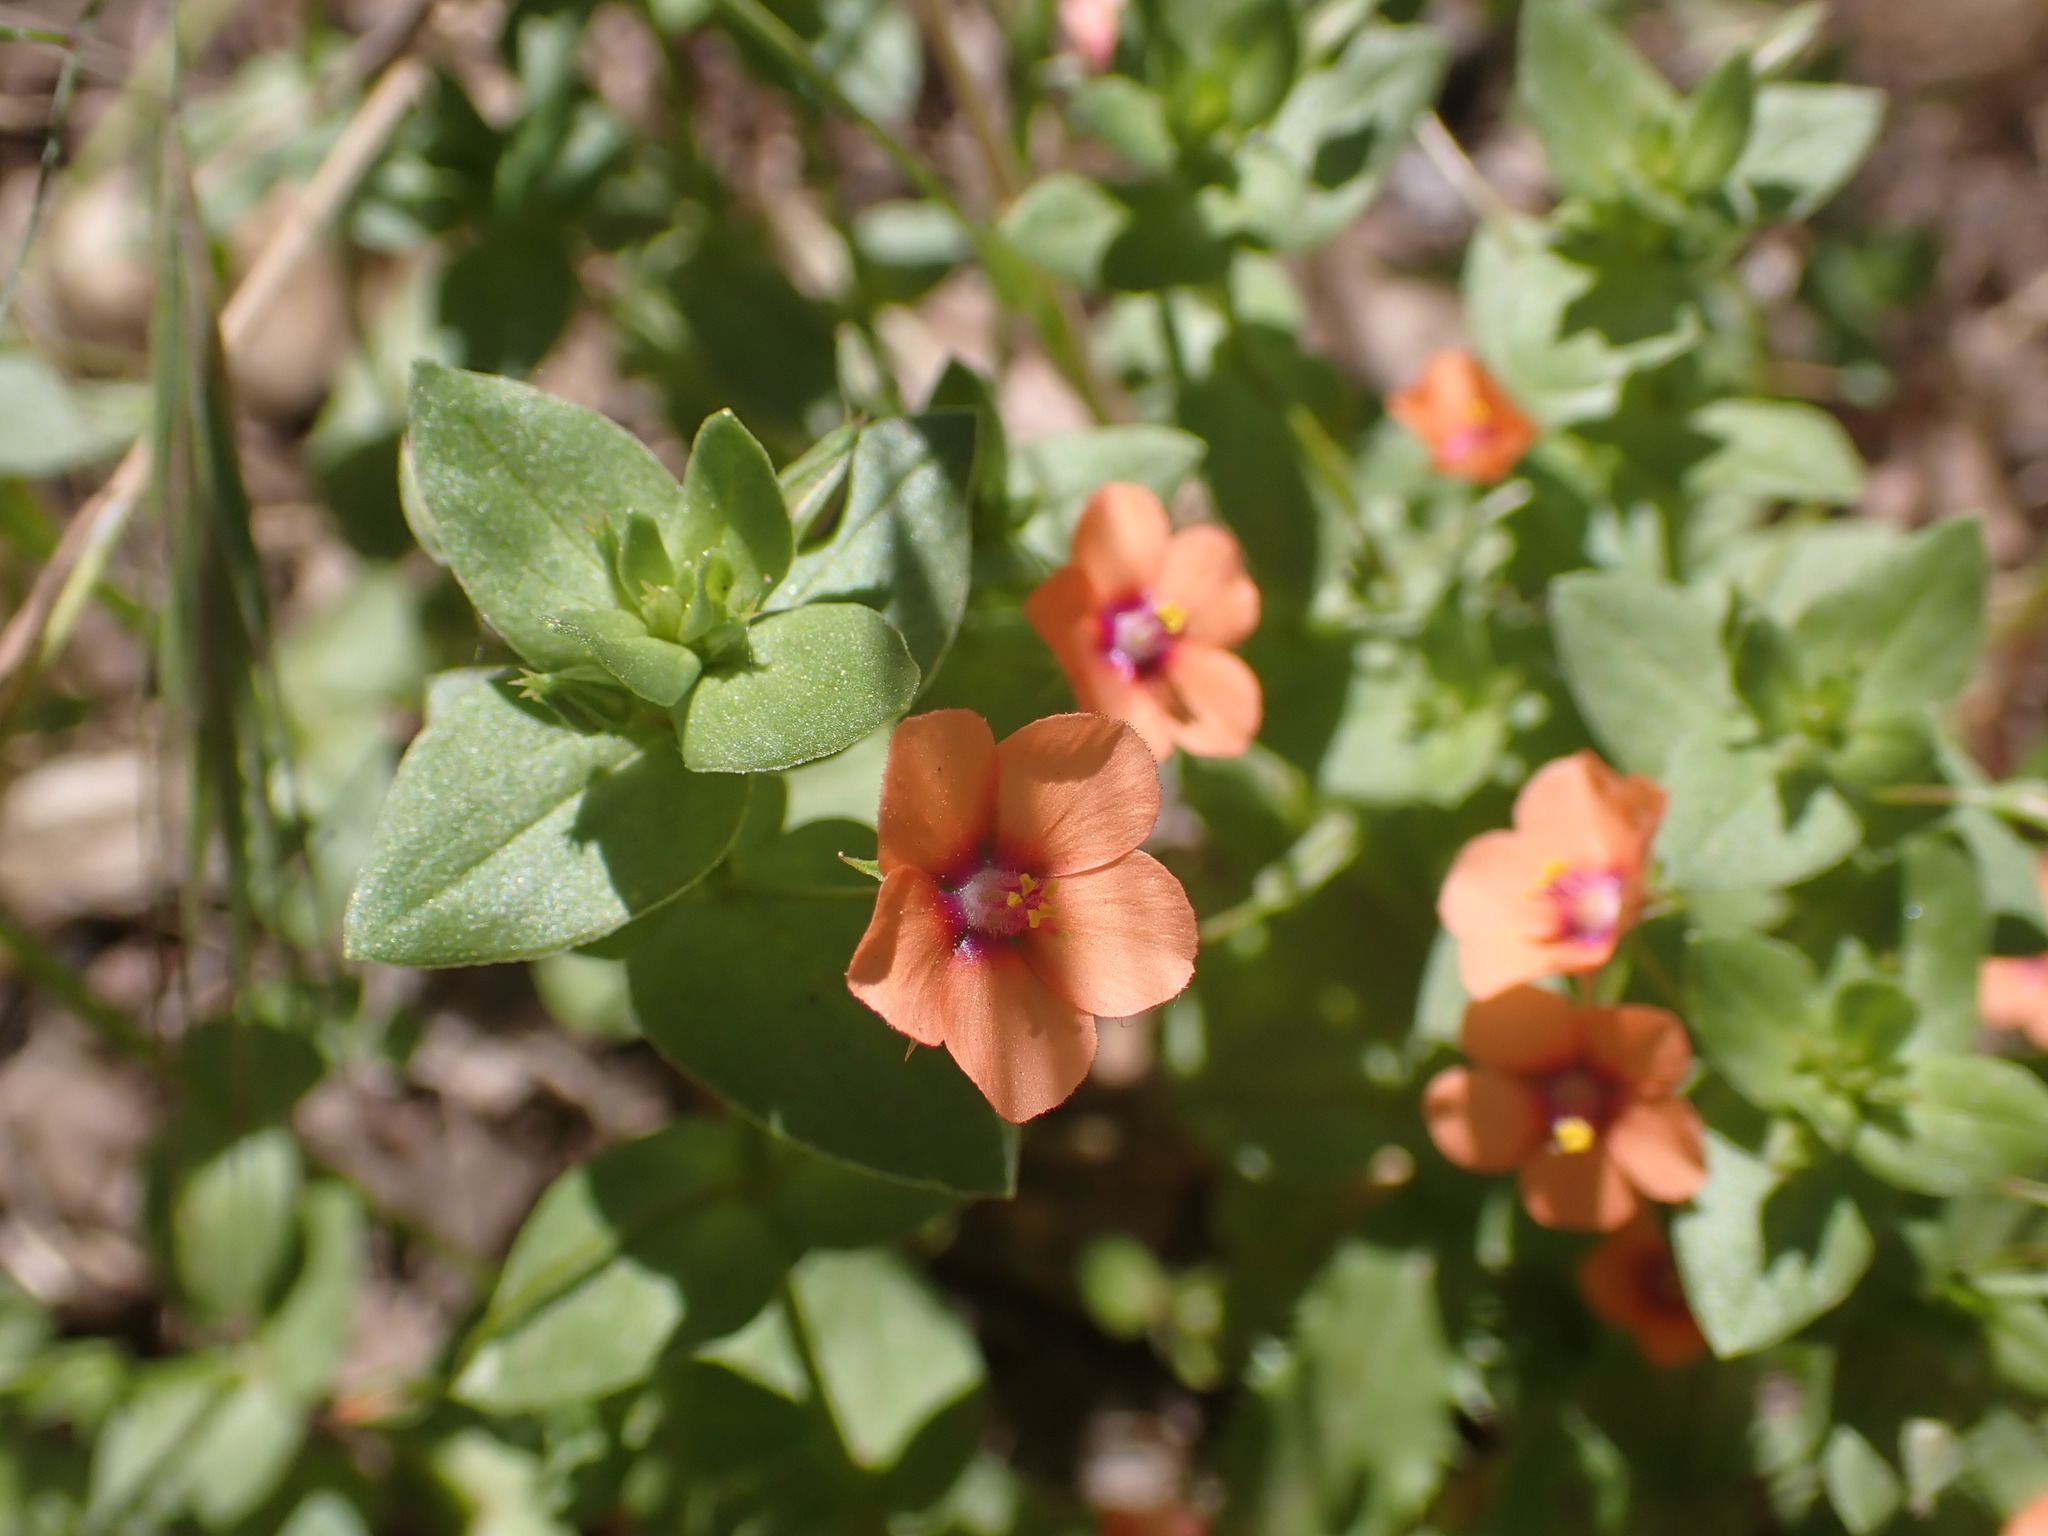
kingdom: Plantae
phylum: Tracheophyta
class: Magnoliopsida
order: Ericales
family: Primulaceae
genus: Lysimachia
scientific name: Lysimachia arvensis
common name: Scarlet pimpernel
